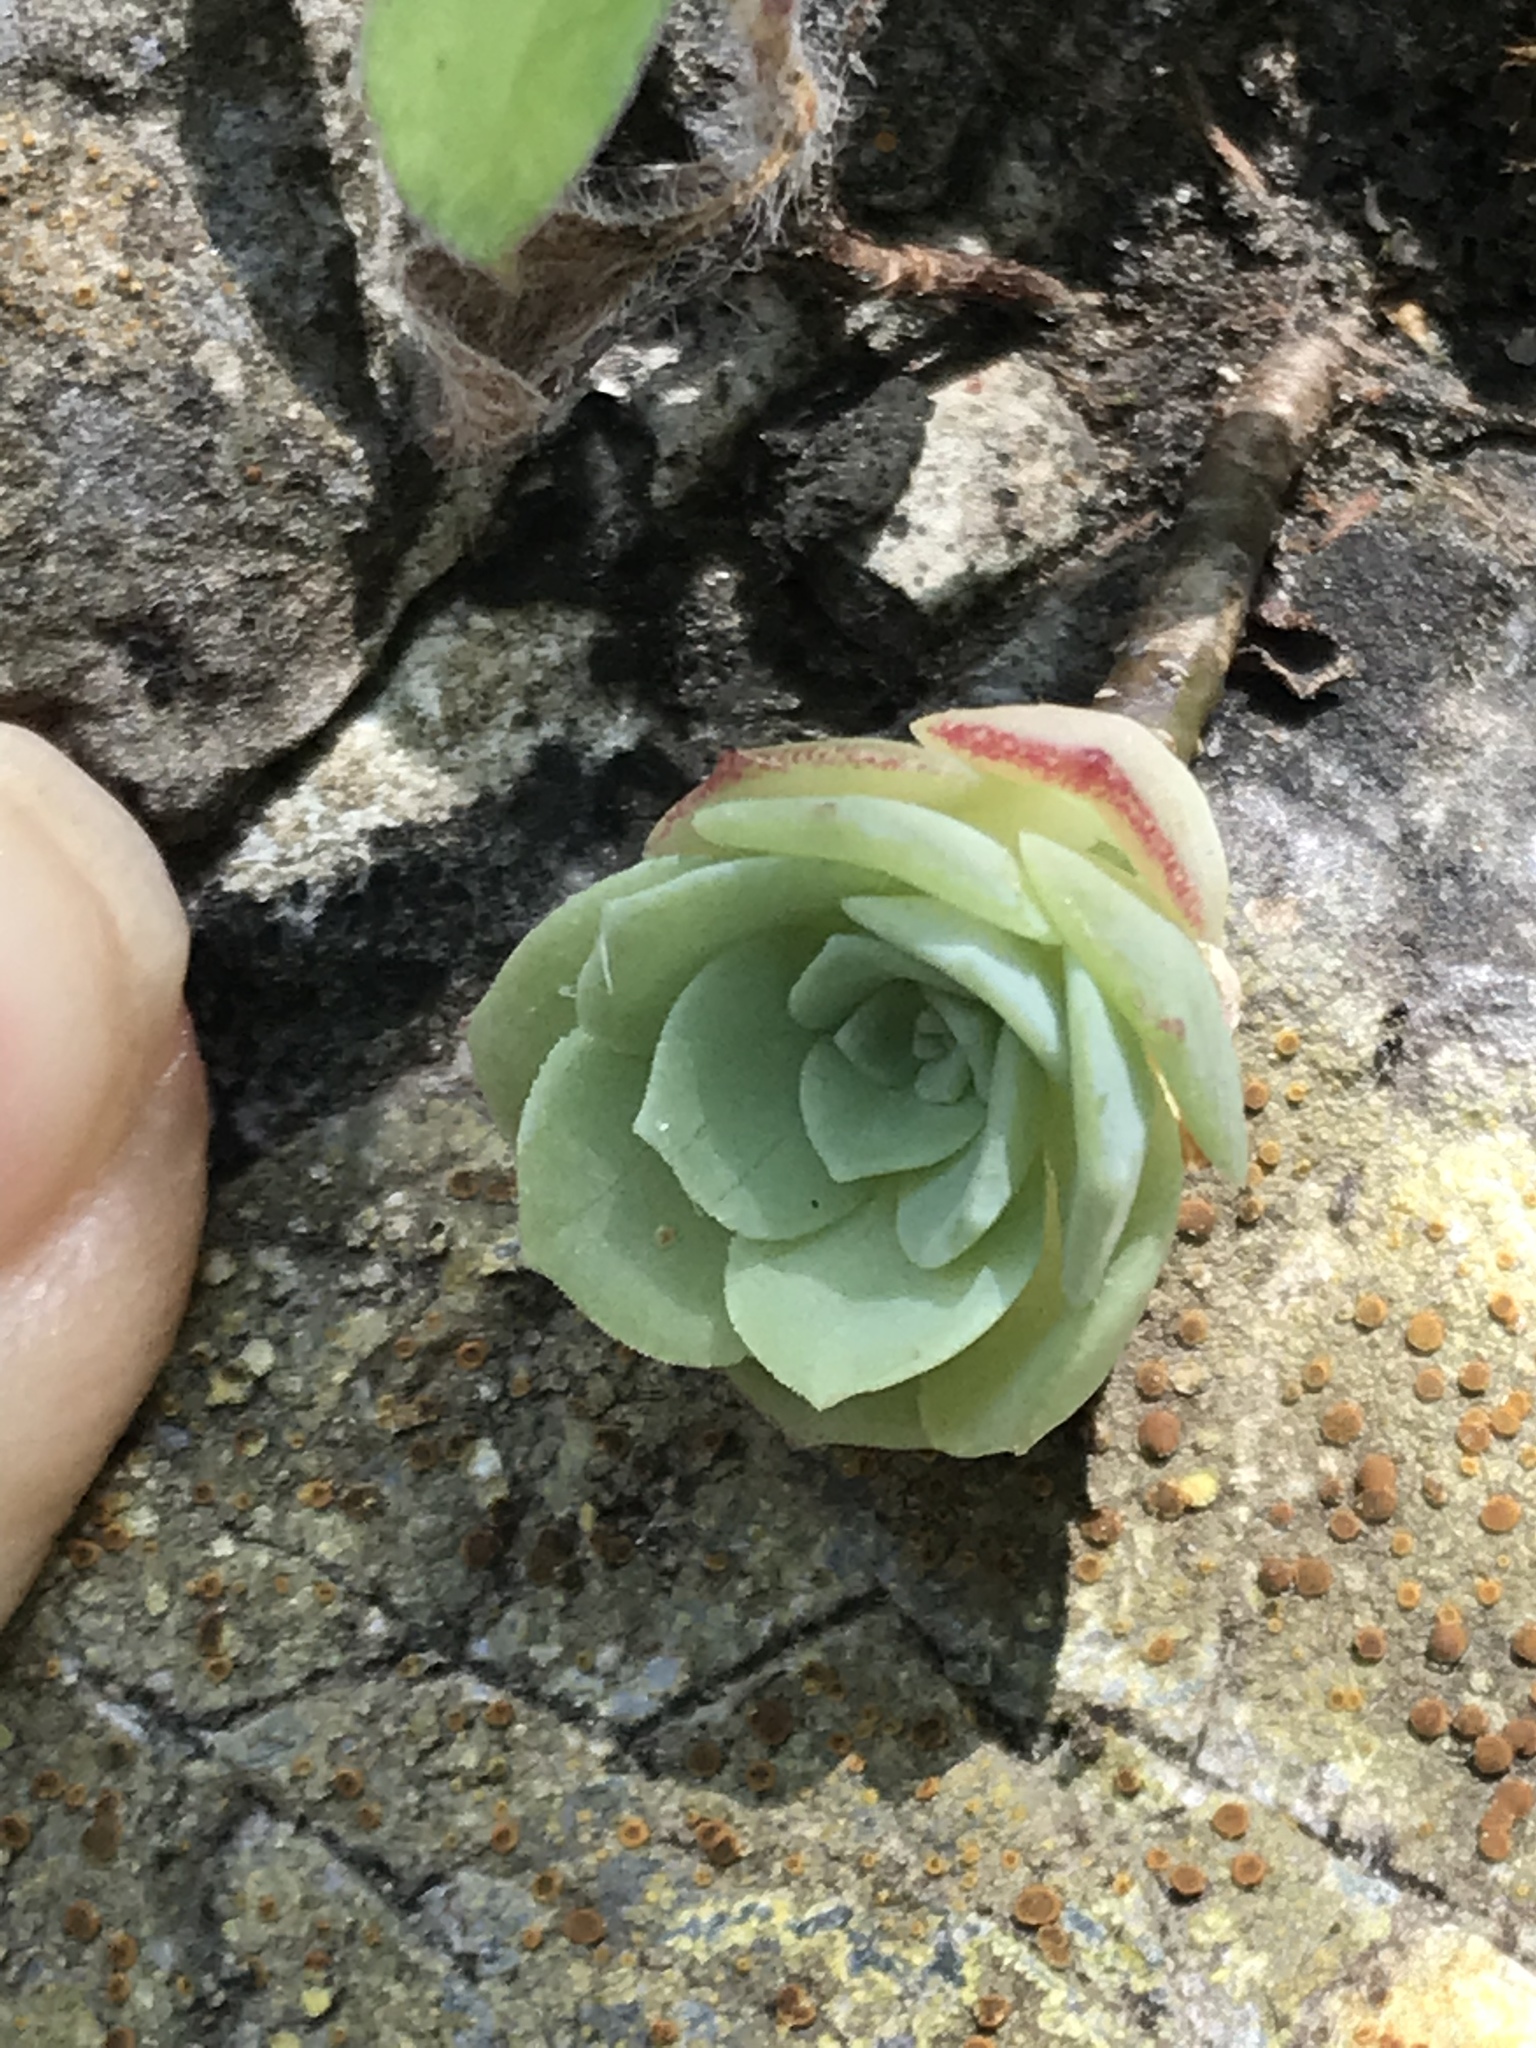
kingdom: Plantae
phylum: Tracheophyta
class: Magnoliopsida
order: Saxifragales
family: Crassulaceae
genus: Sedum
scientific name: Sedum palmeri
